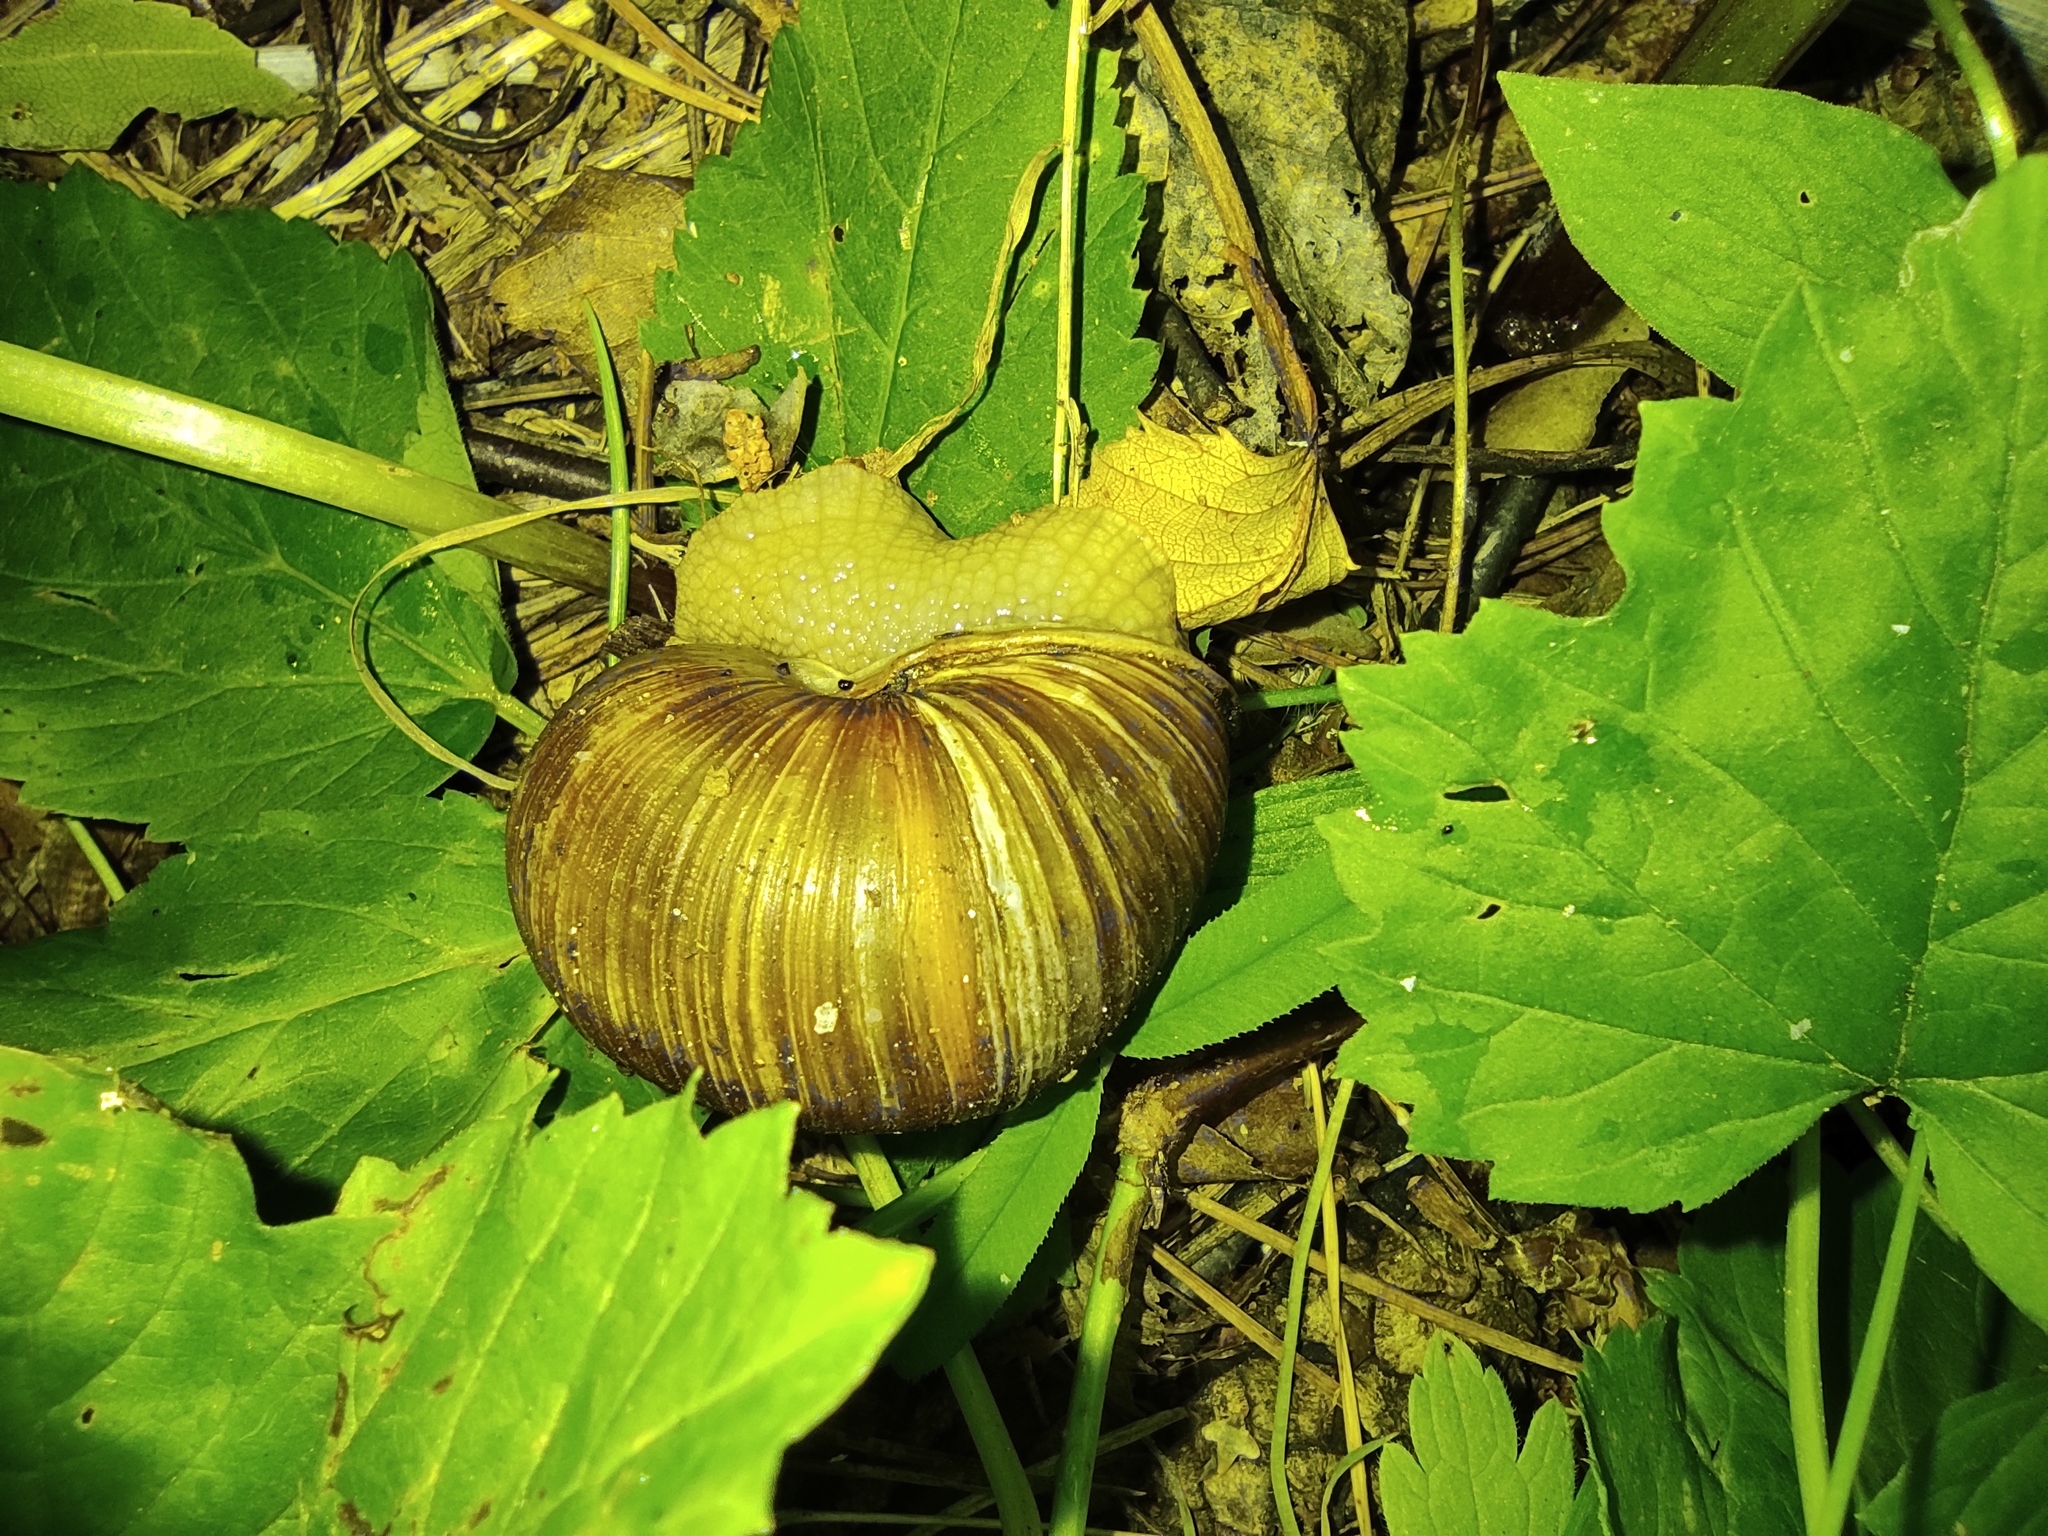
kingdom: Animalia
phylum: Mollusca
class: Gastropoda
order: Stylommatophora
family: Helicidae
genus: Helix
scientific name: Helix pomatia
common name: Roman snail
